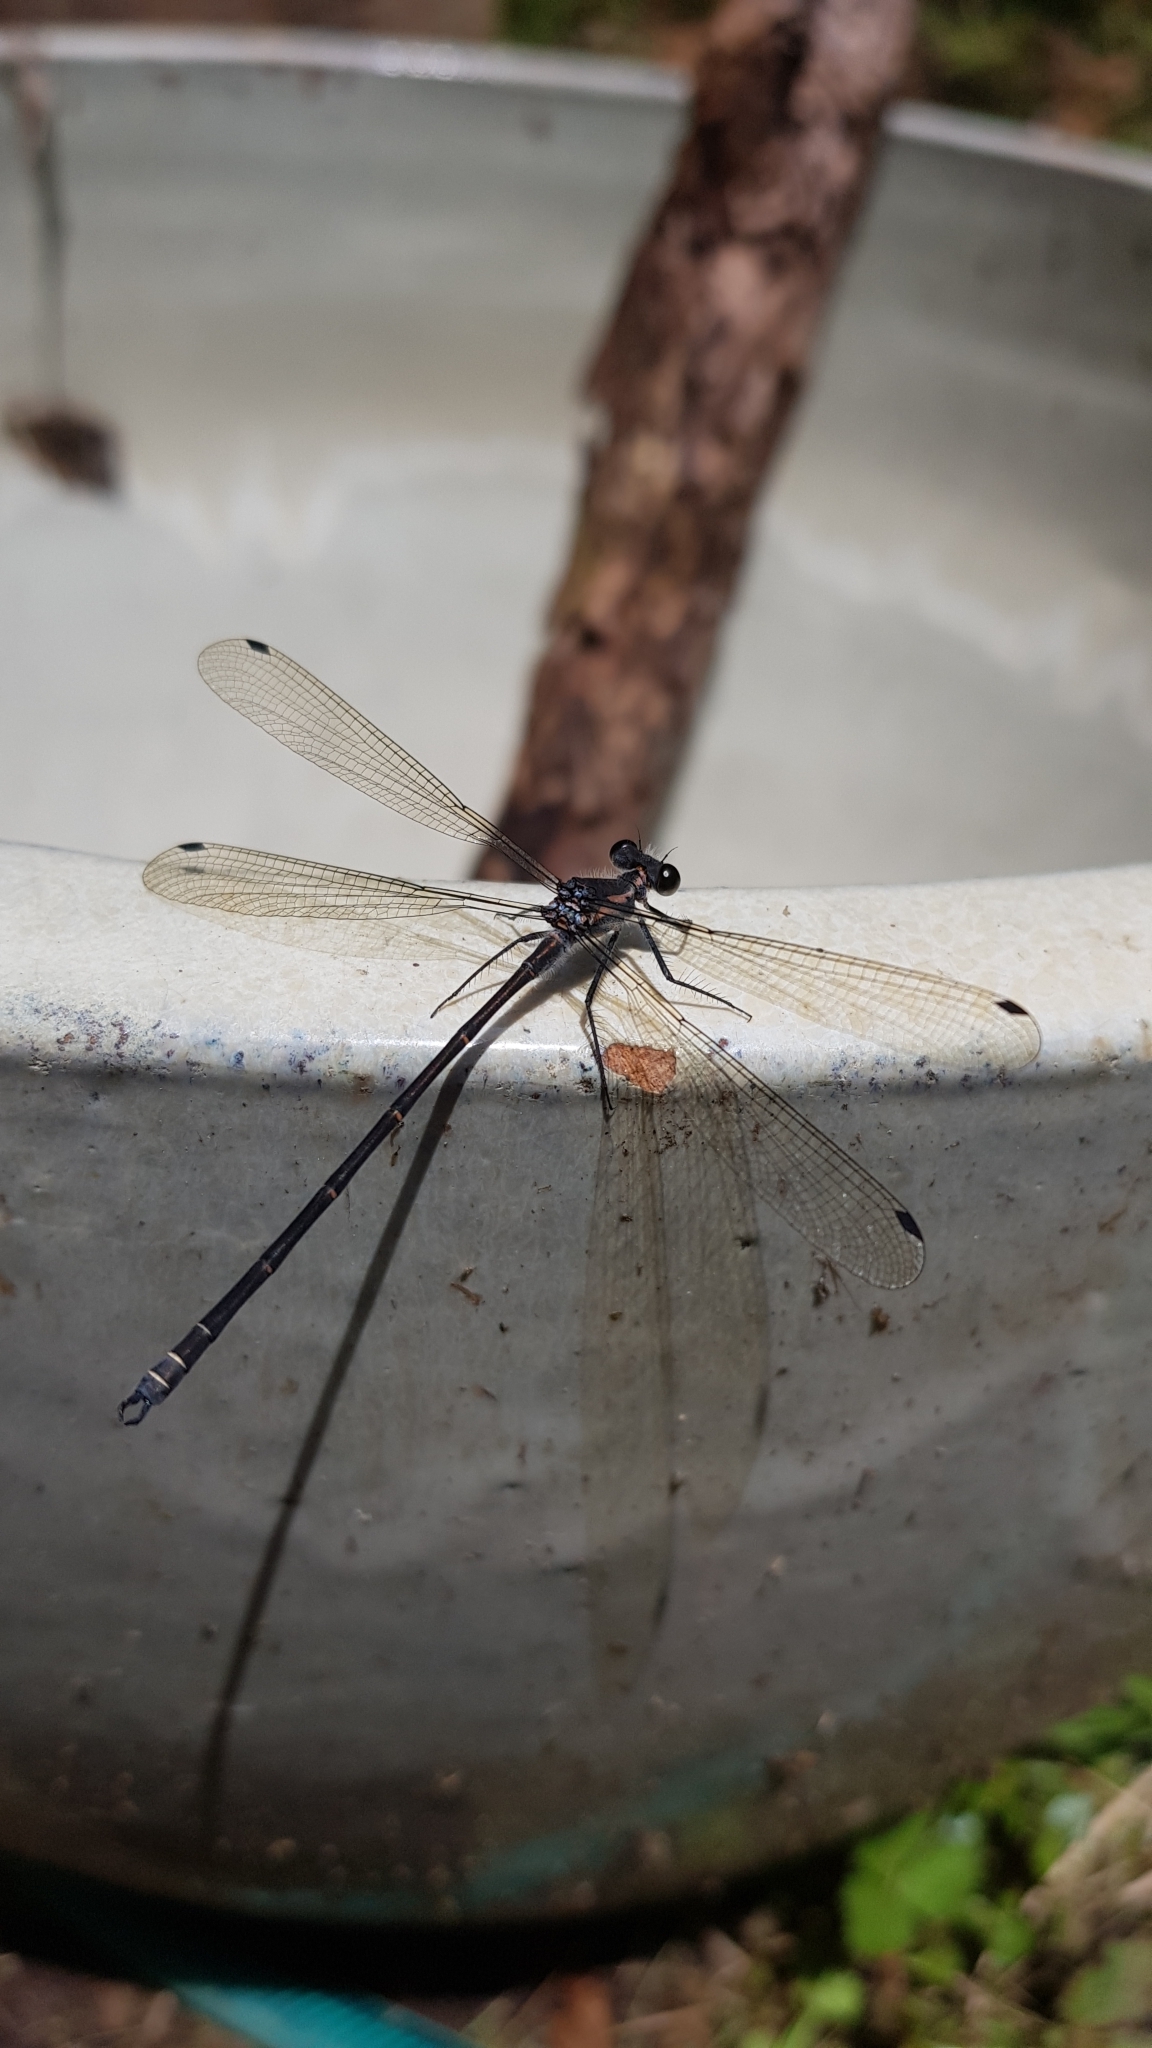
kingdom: Animalia
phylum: Arthropoda
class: Insecta
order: Odonata
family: Argiolestidae
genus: Austroargiolestes
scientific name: Austroargiolestes icteromelas
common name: Common flatwing
